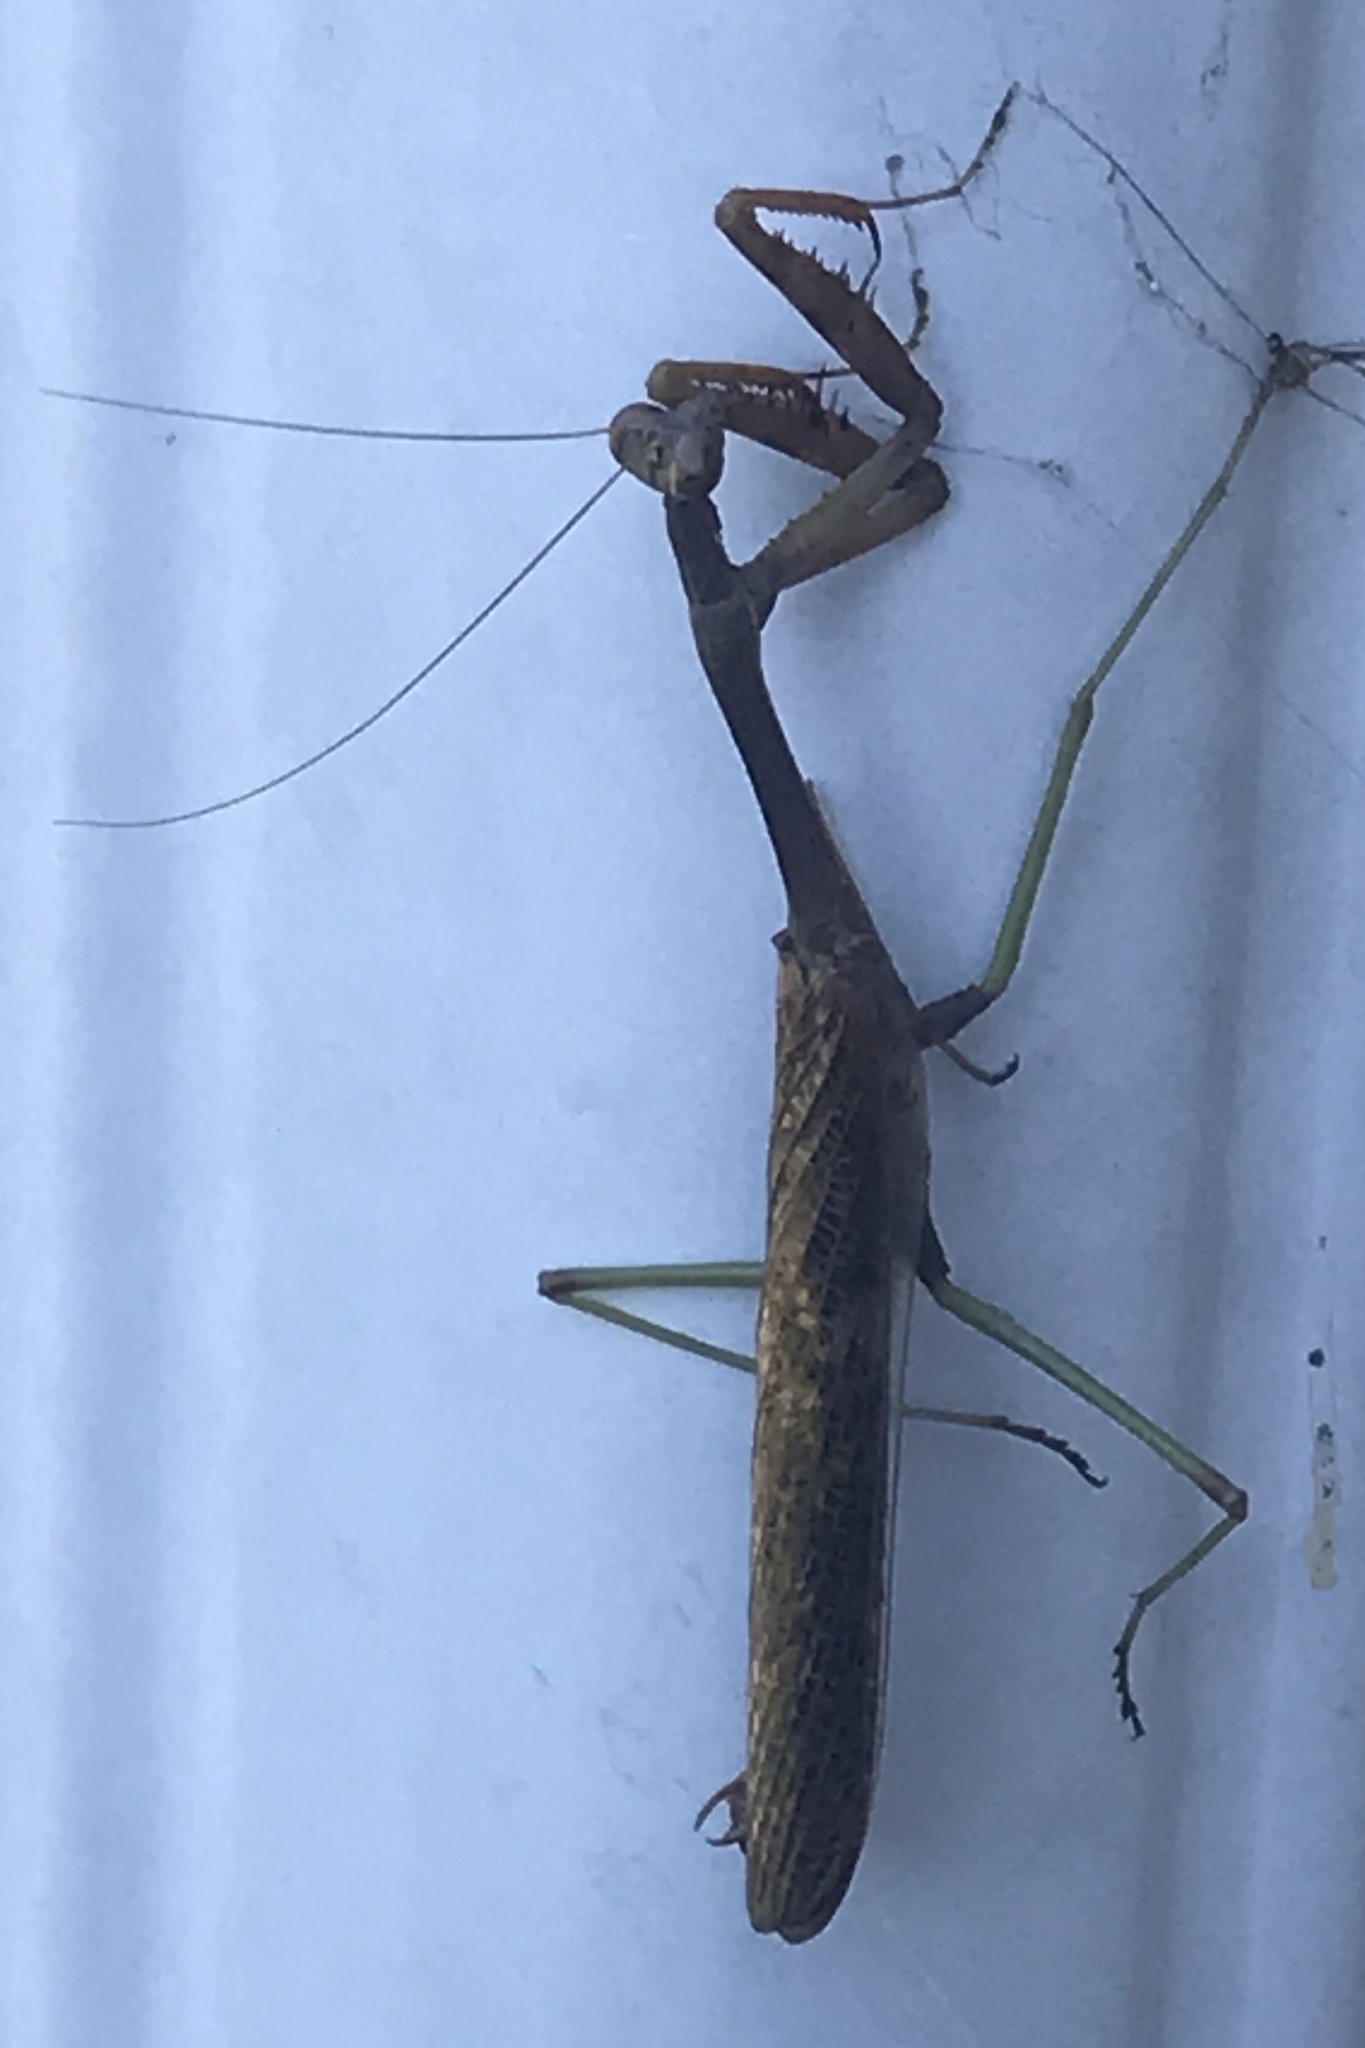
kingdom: Animalia
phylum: Arthropoda
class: Insecta
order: Mantodea
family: Mantidae
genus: Stagmomantis
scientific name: Stagmomantis carolina
